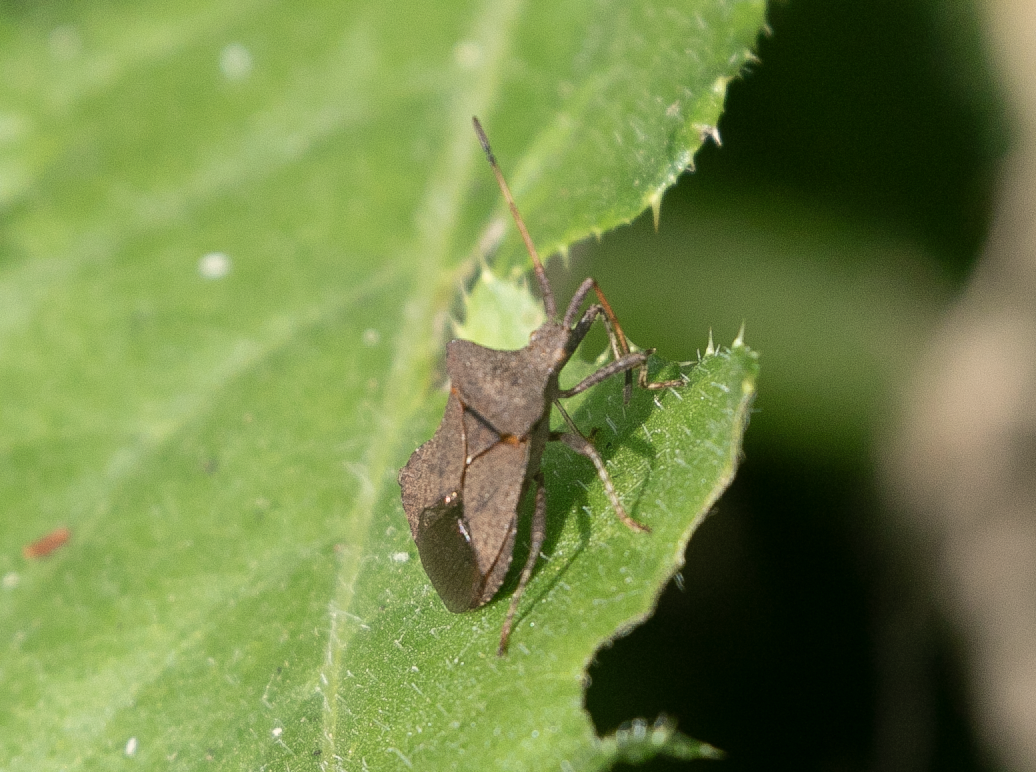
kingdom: Animalia
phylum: Arthropoda
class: Insecta
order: Hemiptera
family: Coreidae
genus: Coreus
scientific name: Coreus marginatus
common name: Dock bug
